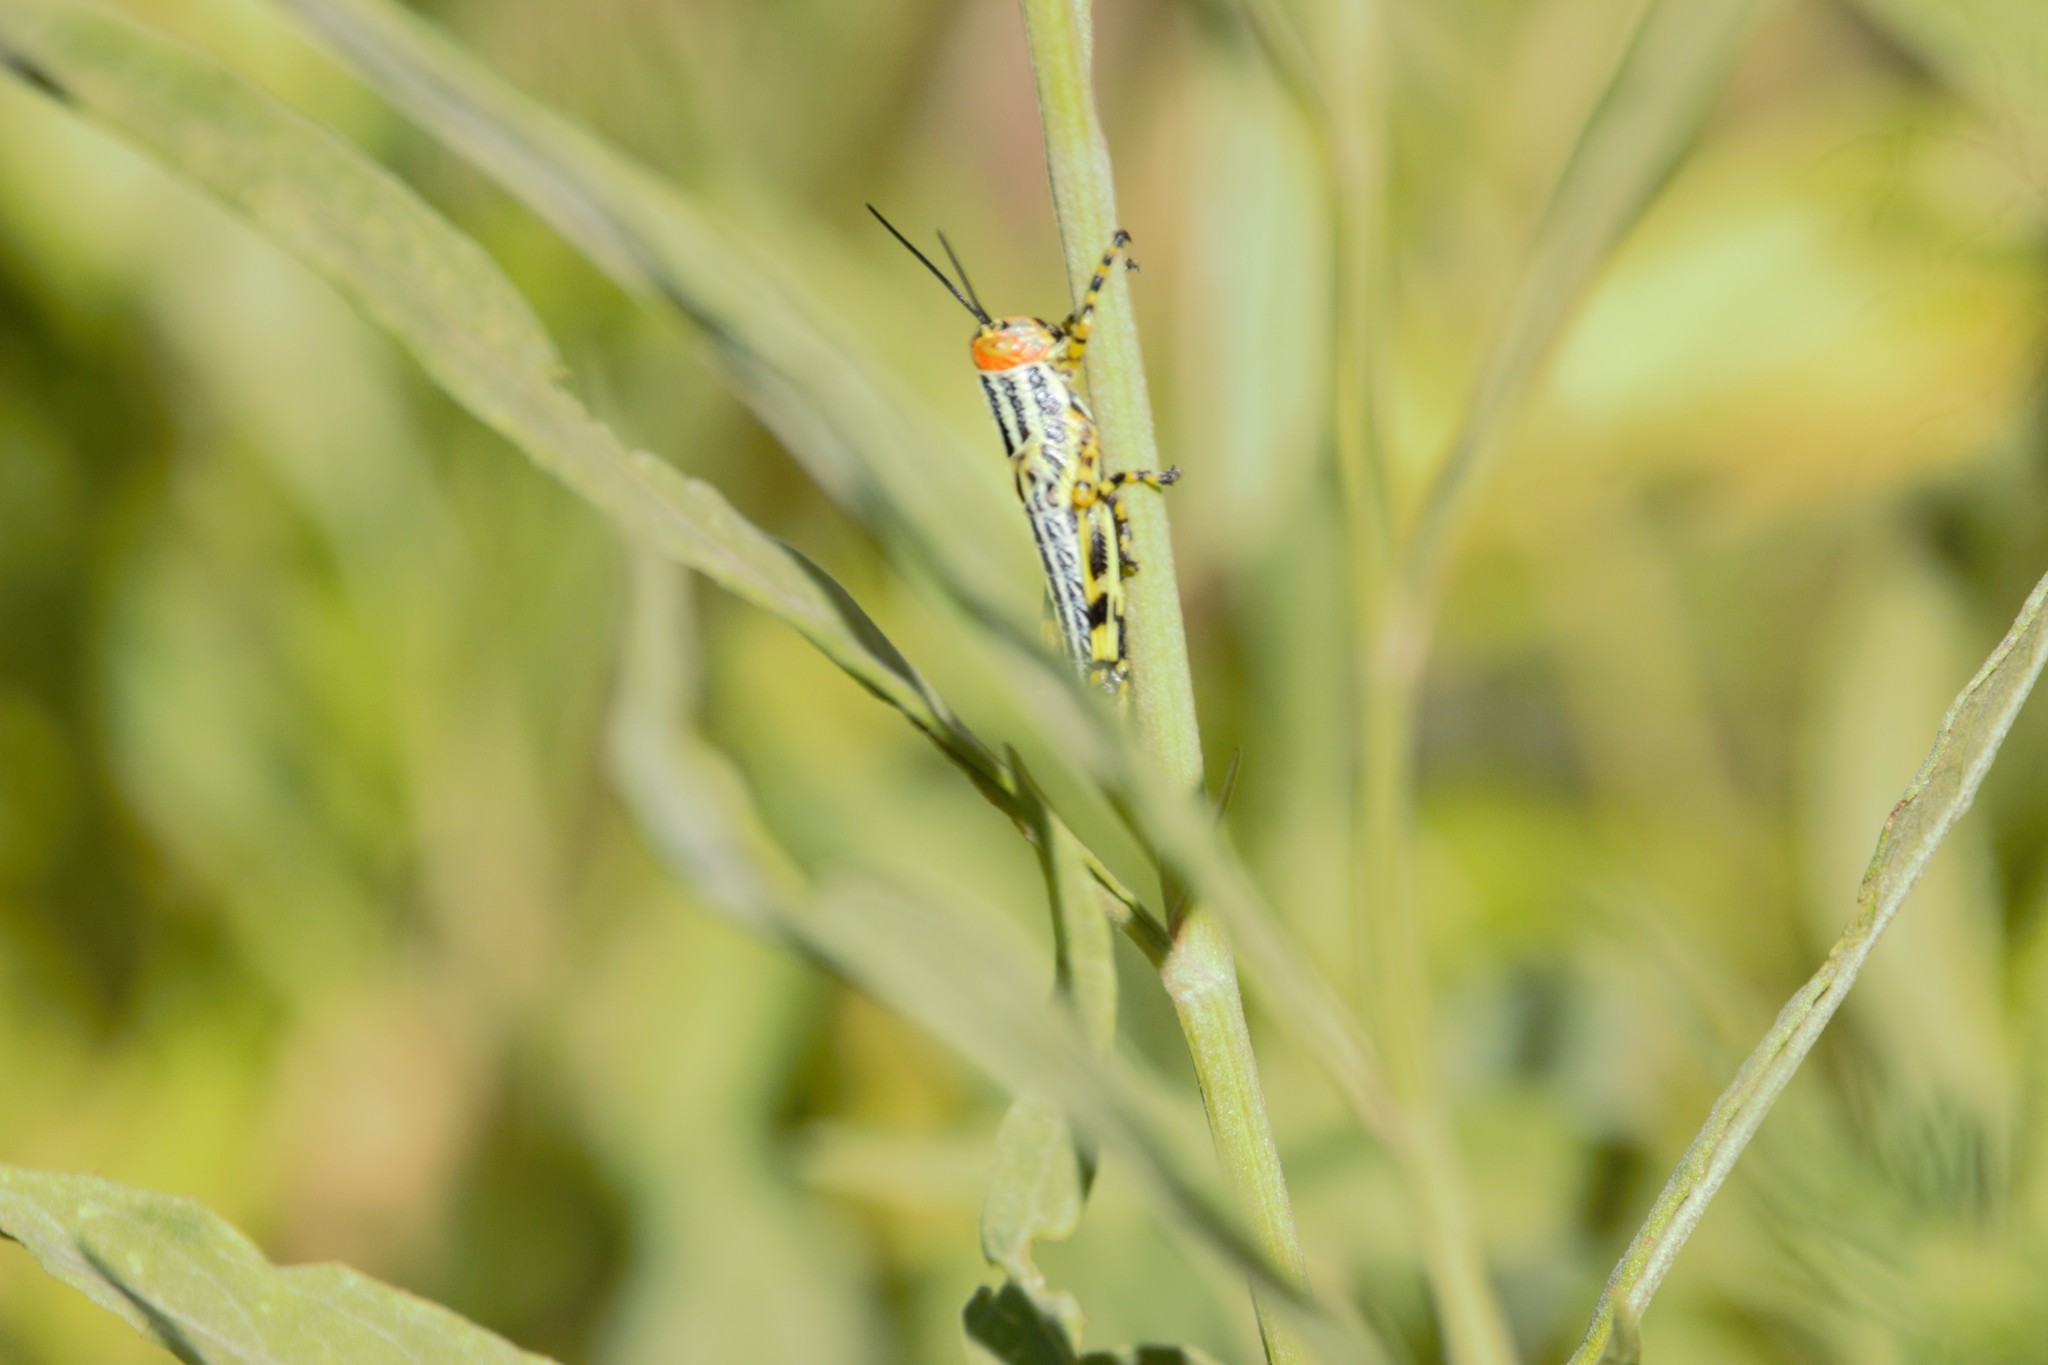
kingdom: Animalia
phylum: Arthropoda
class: Insecta
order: Orthoptera
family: Romaleidae
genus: Zoniopoda
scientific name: Zoniopoda tarsata
